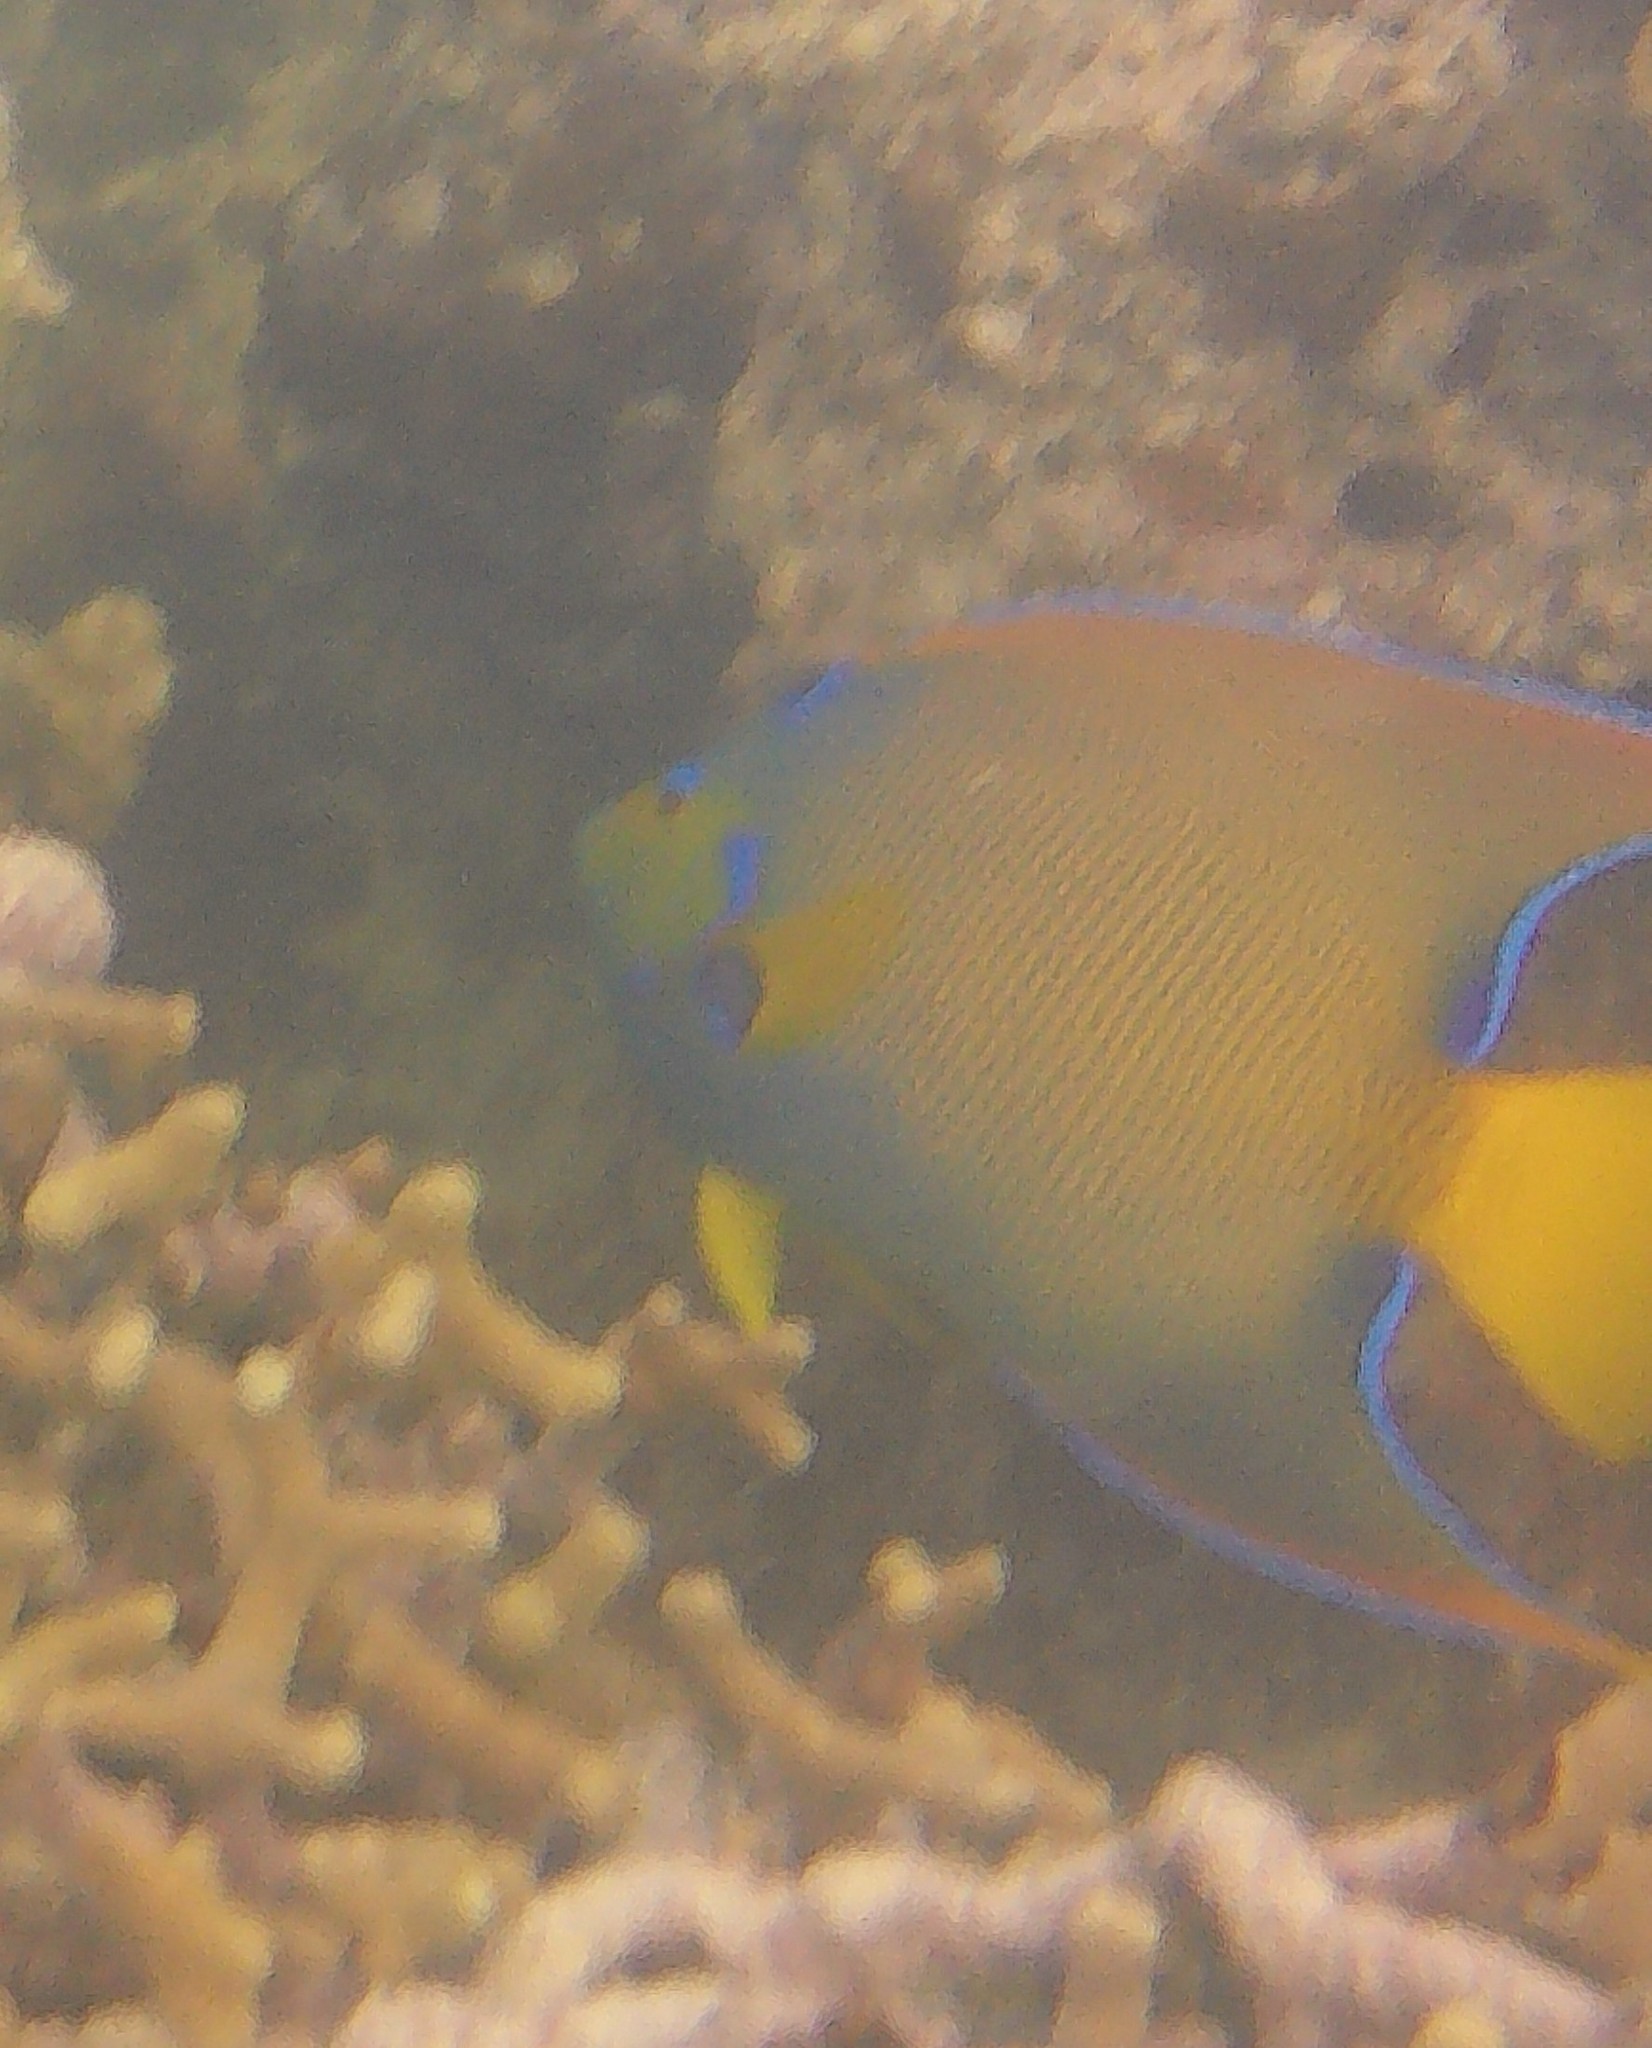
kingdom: Animalia
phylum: Chordata
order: Perciformes
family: Pomacanthidae
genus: Holacanthus
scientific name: Holacanthus ciliaris
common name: Queen angelfish
